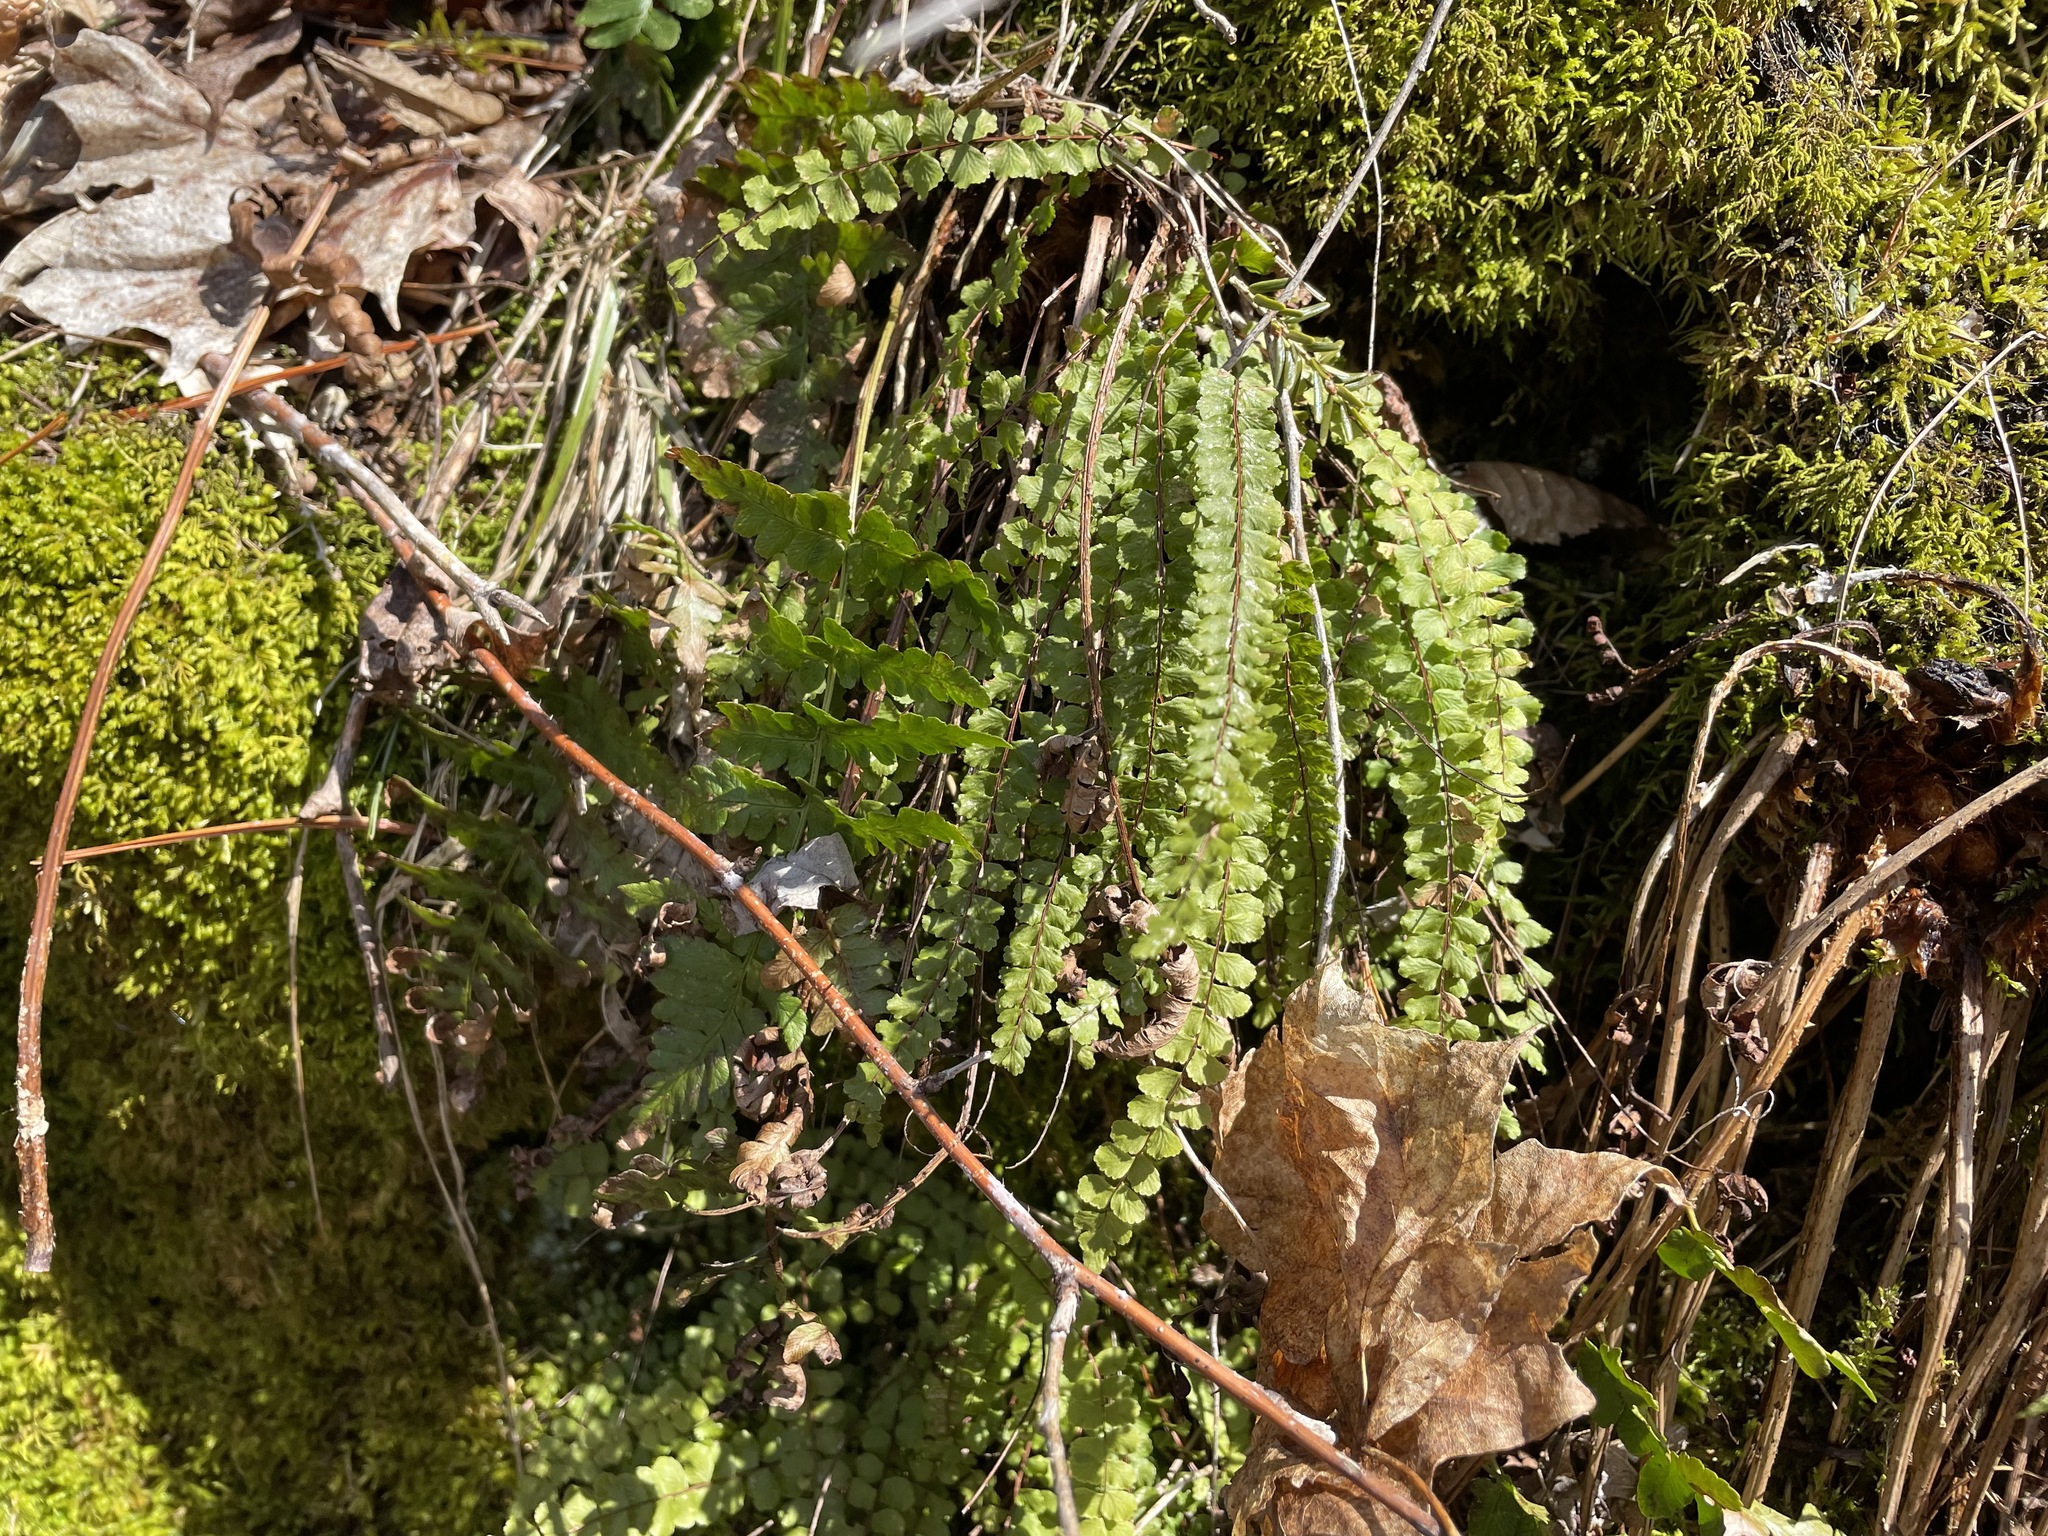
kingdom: Plantae
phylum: Tracheophyta
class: Polypodiopsida
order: Polypodiales
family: Aspleniaceae
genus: Asplenium
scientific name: Asplenium trichomanes
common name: Maidenhair spleenwort
